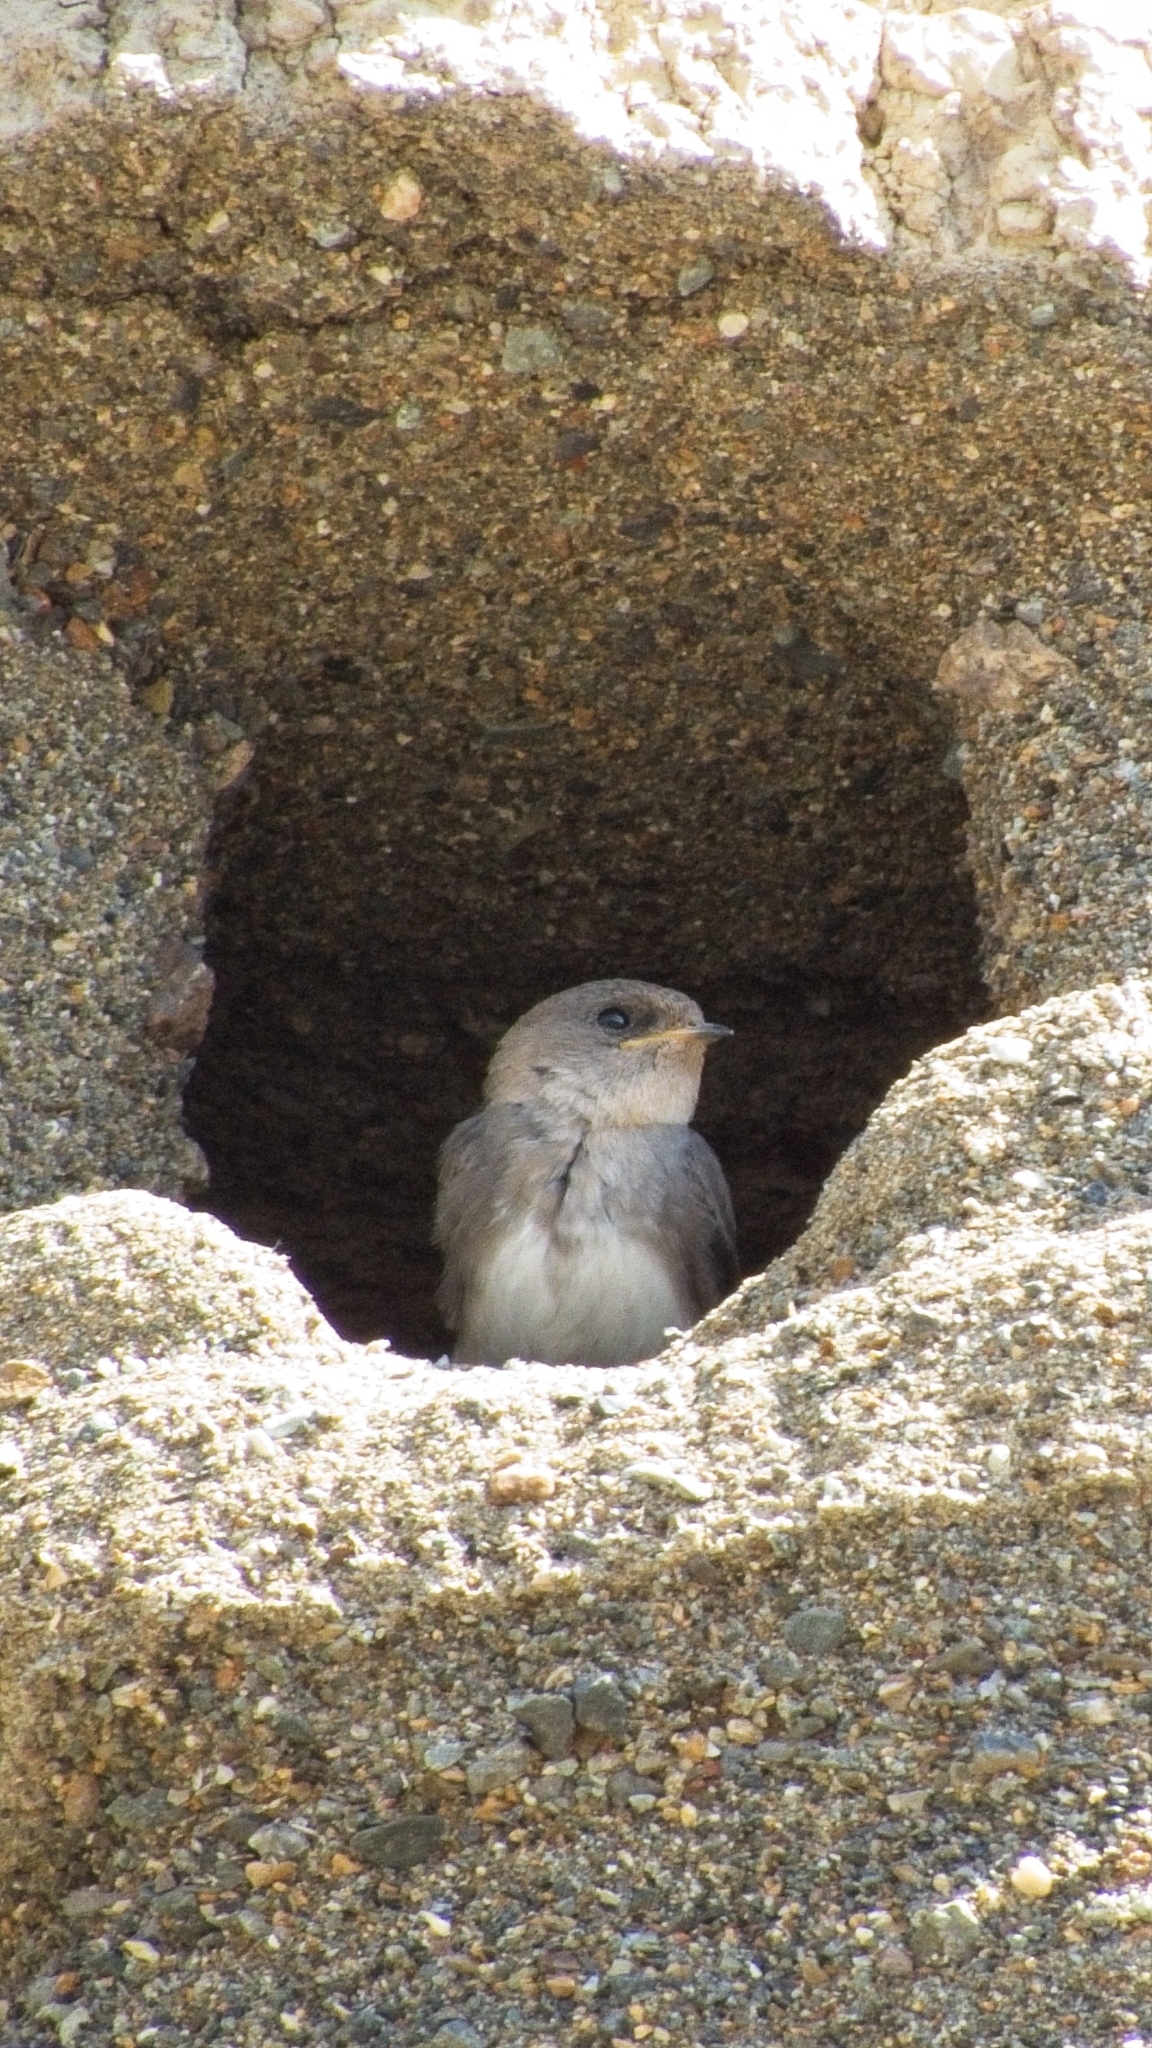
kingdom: Animalia
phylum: Chordata
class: Aves
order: Passeriformes
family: Hirundinidae
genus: Riparia
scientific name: Riparia diluta
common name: Pale martin
